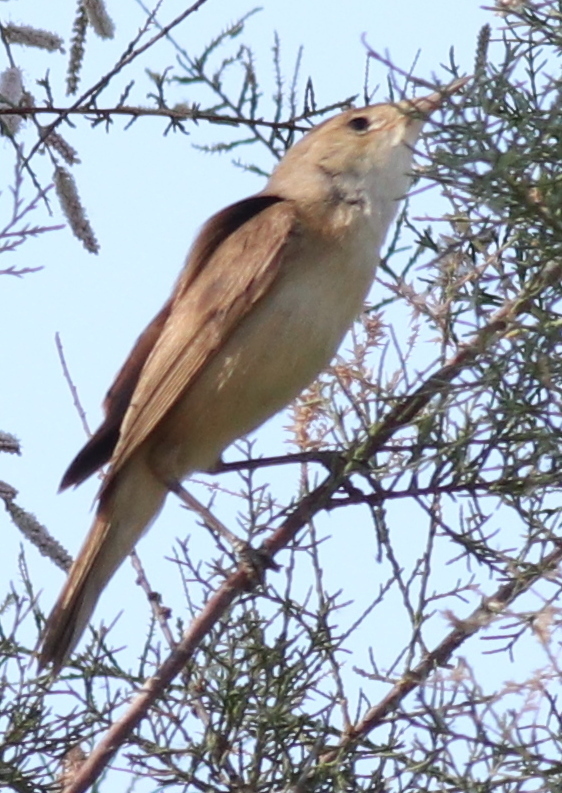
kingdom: Animalia
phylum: Chordata
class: Aves
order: Passeriformes
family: Acrocephalidae
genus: Acrocephalus
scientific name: Acrocephalus scirpaceus
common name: Eurasian reed warbler
